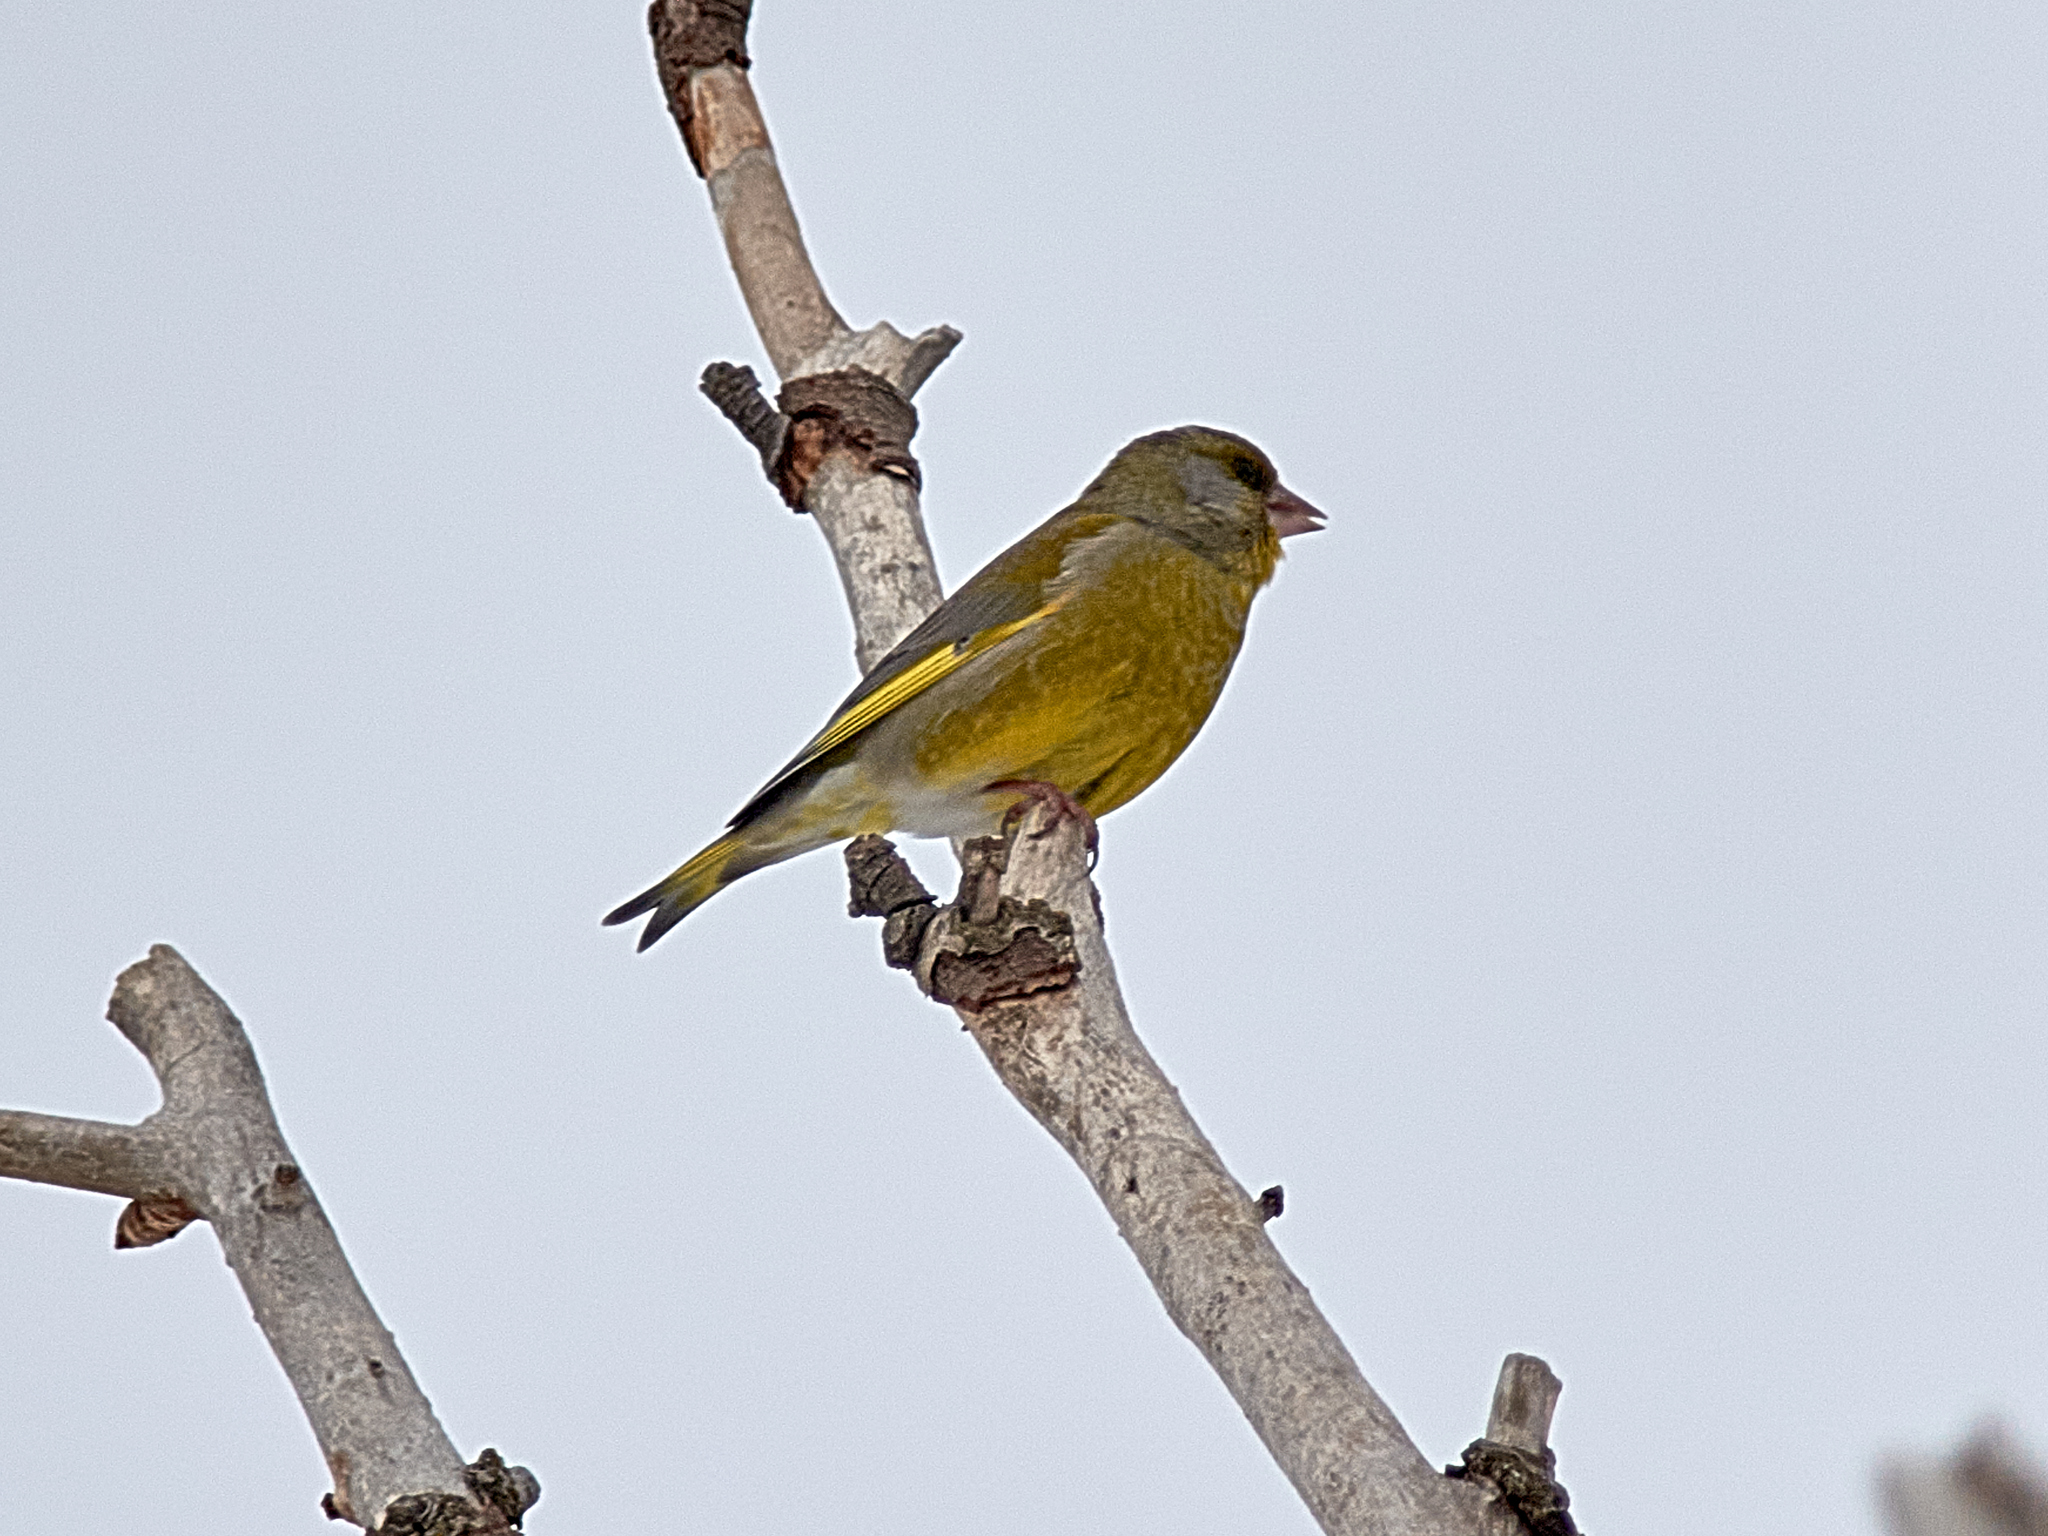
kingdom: Plantae
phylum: Tracheophyta
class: Liliopsida
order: Poales
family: Poaceae
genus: Chloris
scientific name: Chloris chloris
